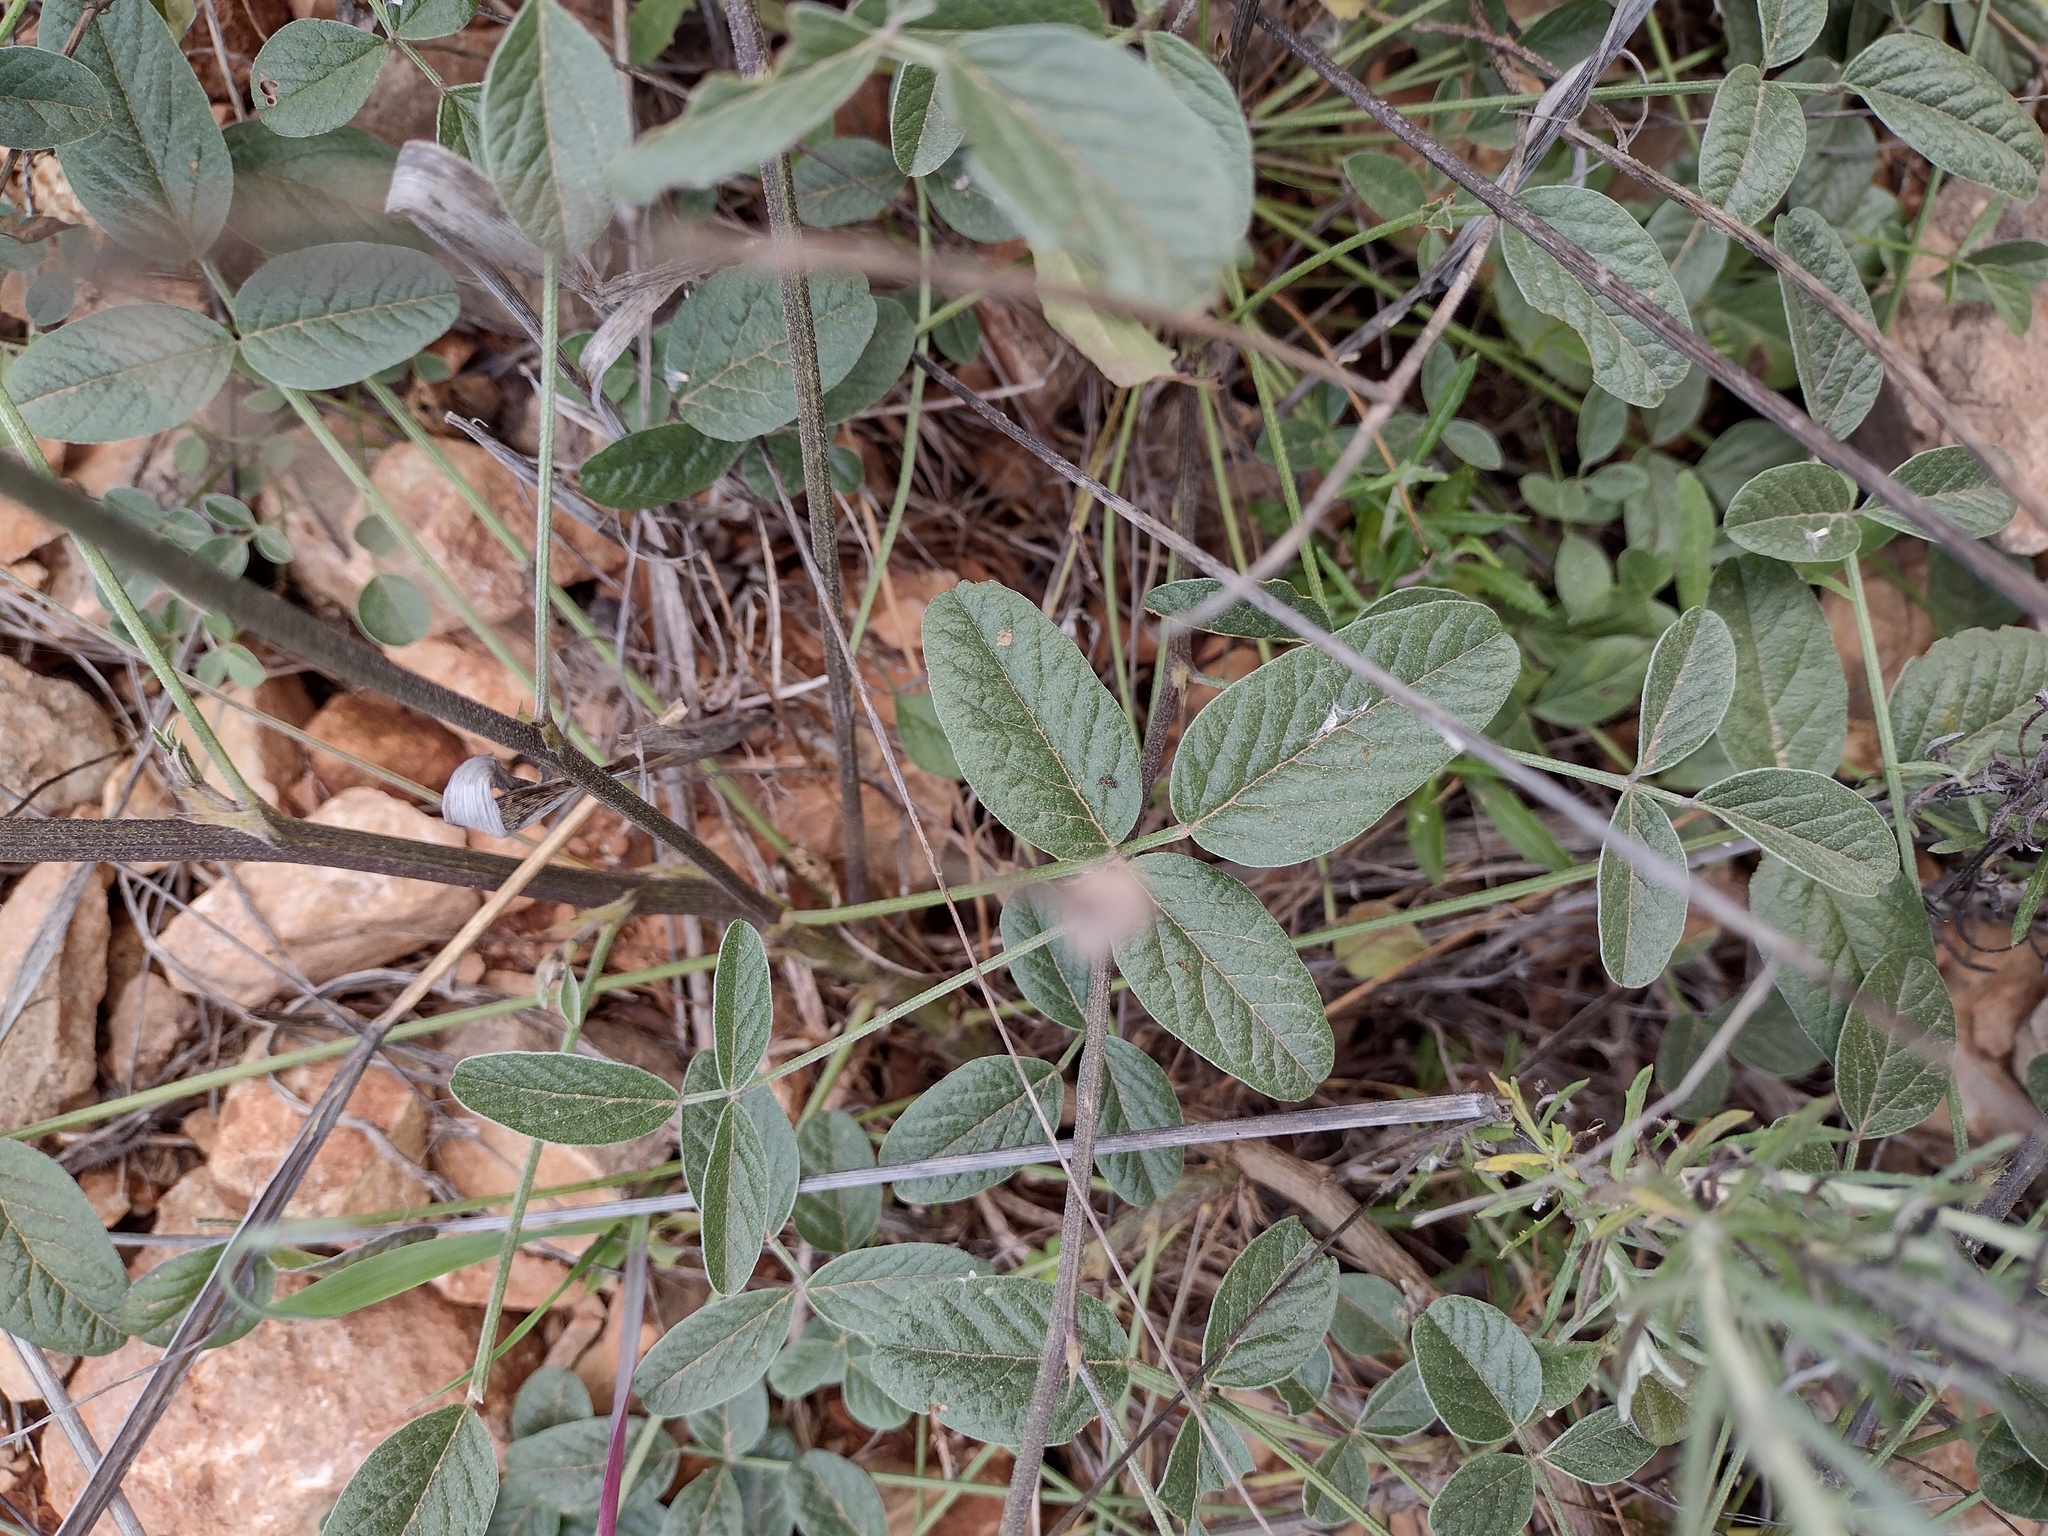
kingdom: Plantae
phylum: Tracheophyta
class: Magnoliopsida
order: Fabales
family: Fabaceae
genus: Bituminaria
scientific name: Bituminaria bituminosa
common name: Arabian pea
